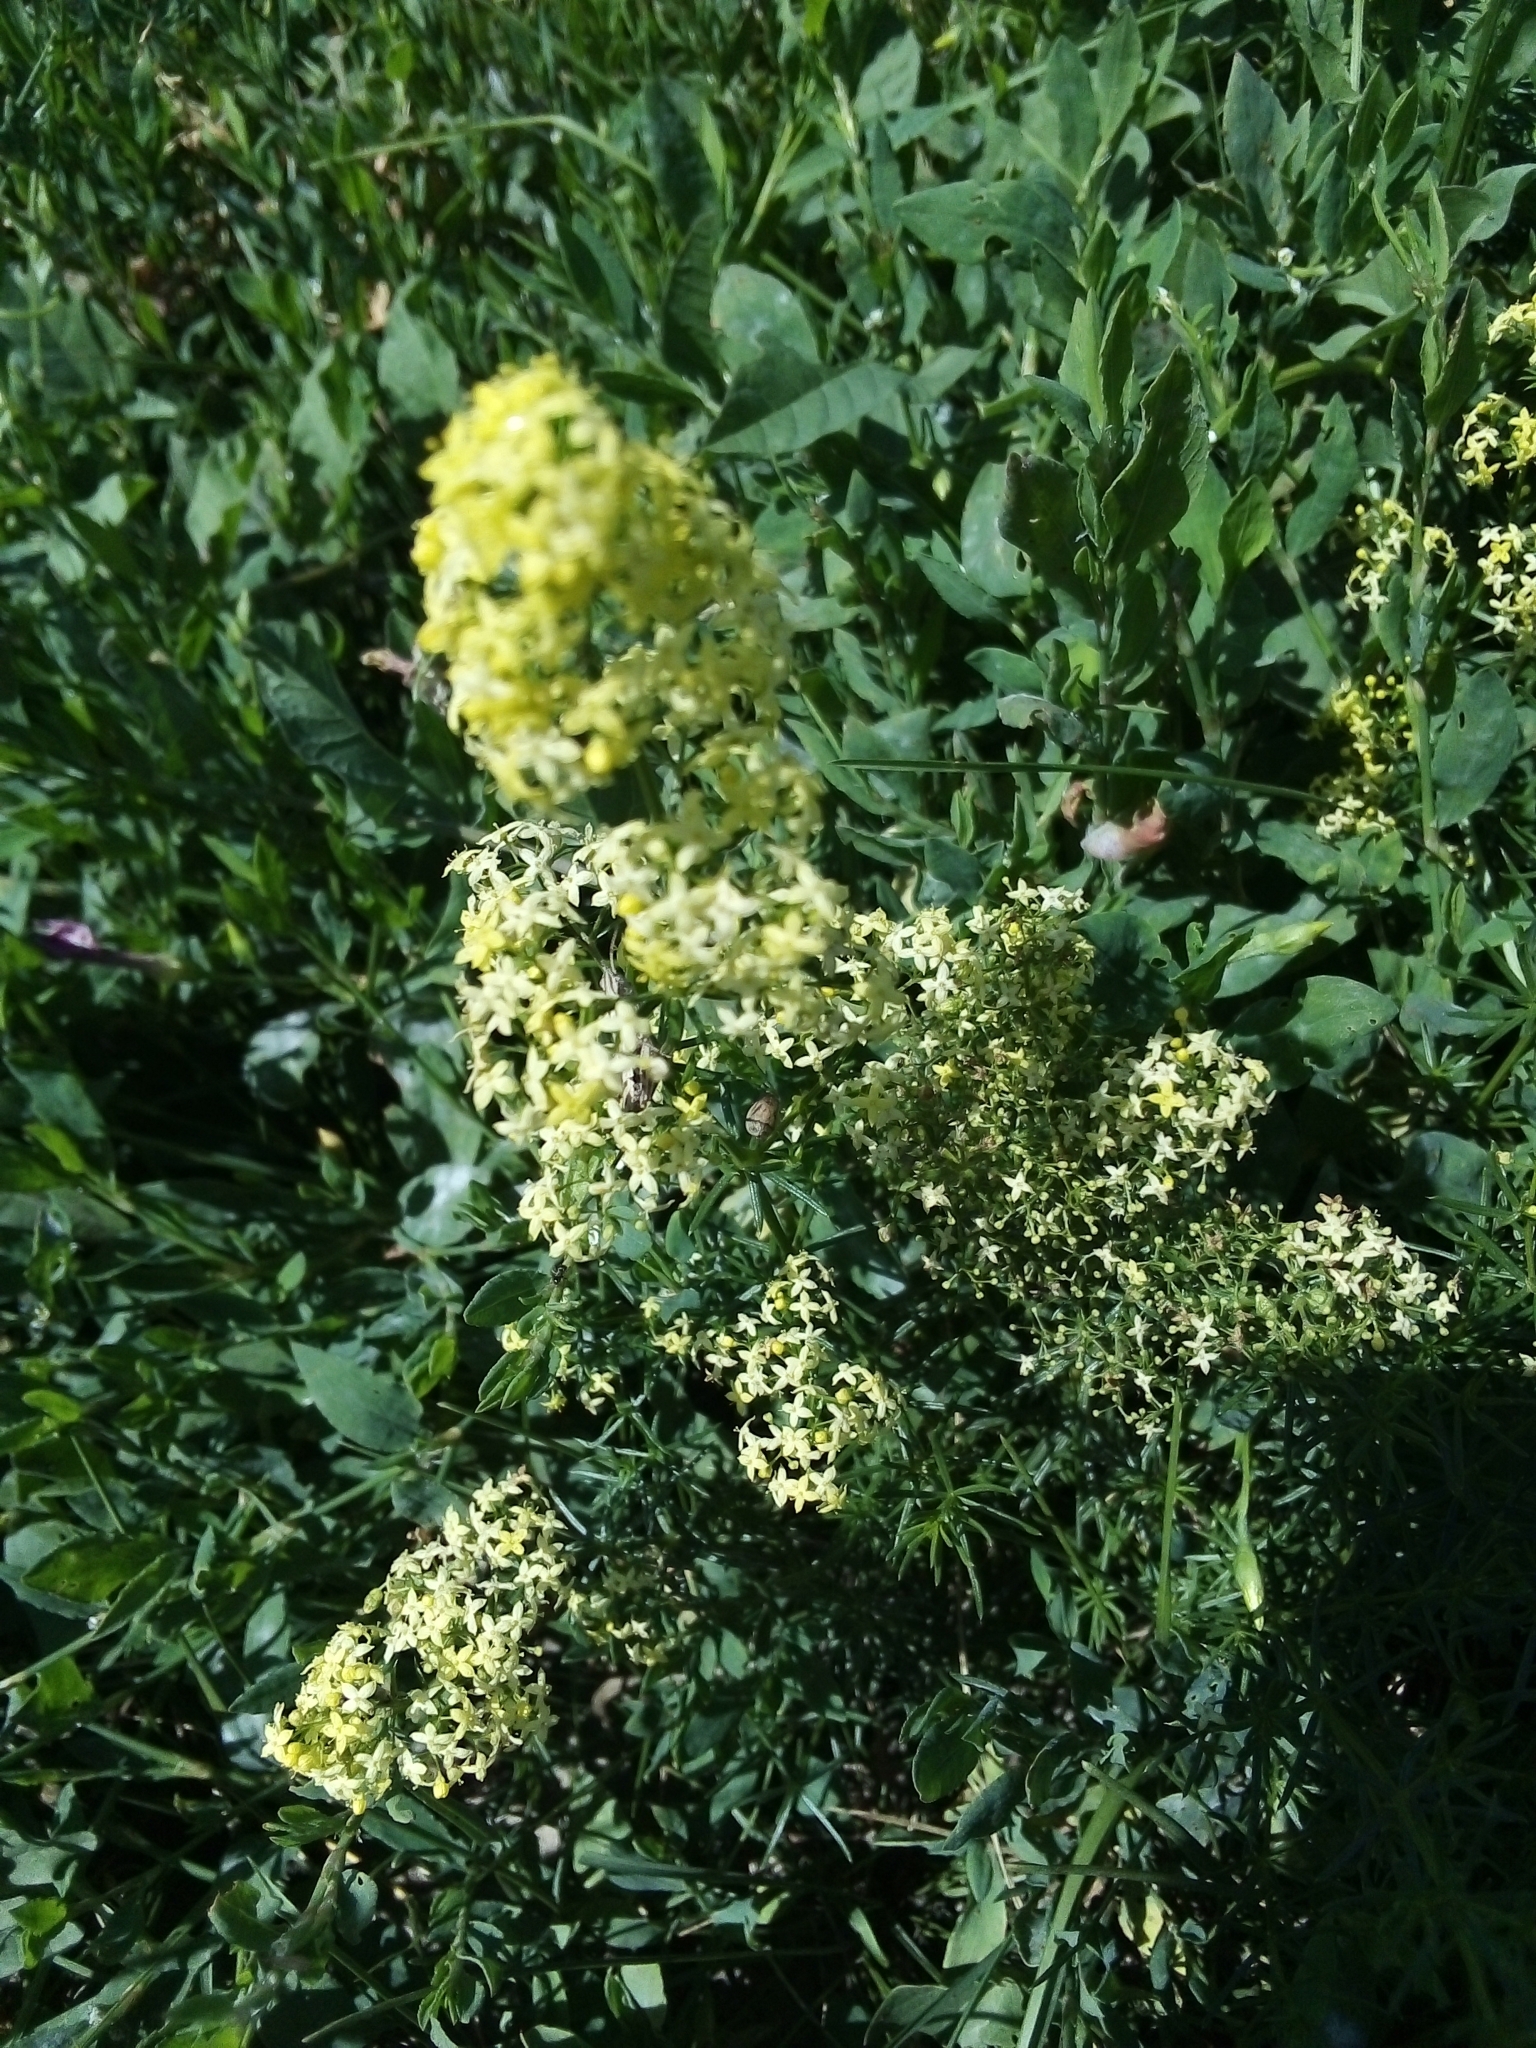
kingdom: Plantae
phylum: Tracheophyta
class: Magnoliopsida
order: Gentianales
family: Rubiaceae
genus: Galium
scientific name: Galium pomeranicum
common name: Bedstraw
